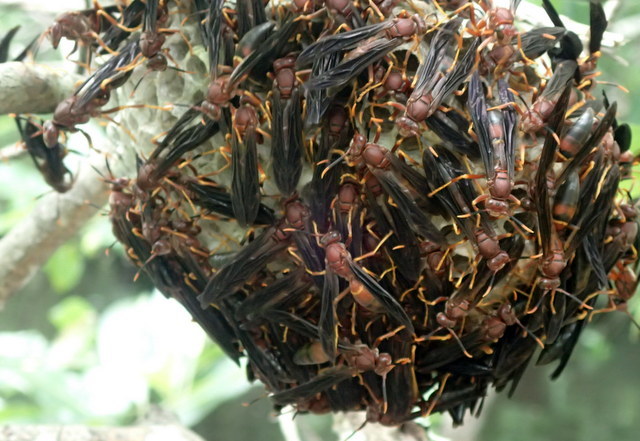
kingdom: Animalia
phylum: Arthropoda
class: Insecta
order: Hymenoptera
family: Eumenidae
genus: Polistes
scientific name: Polistes annularis
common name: Ringed paper wasp
